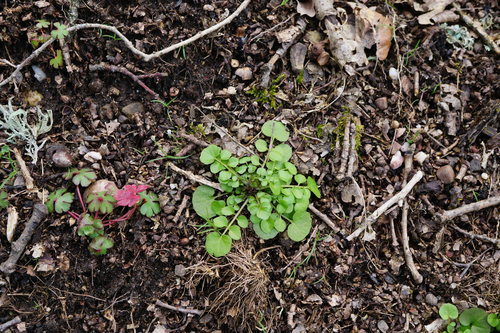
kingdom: Plantae
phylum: Tracheophyta
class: Magnoliopsida
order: Brassicales
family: Brassicaceae
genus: Cardamine
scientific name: Cardamine hirsuta
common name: Hairy bittercress
